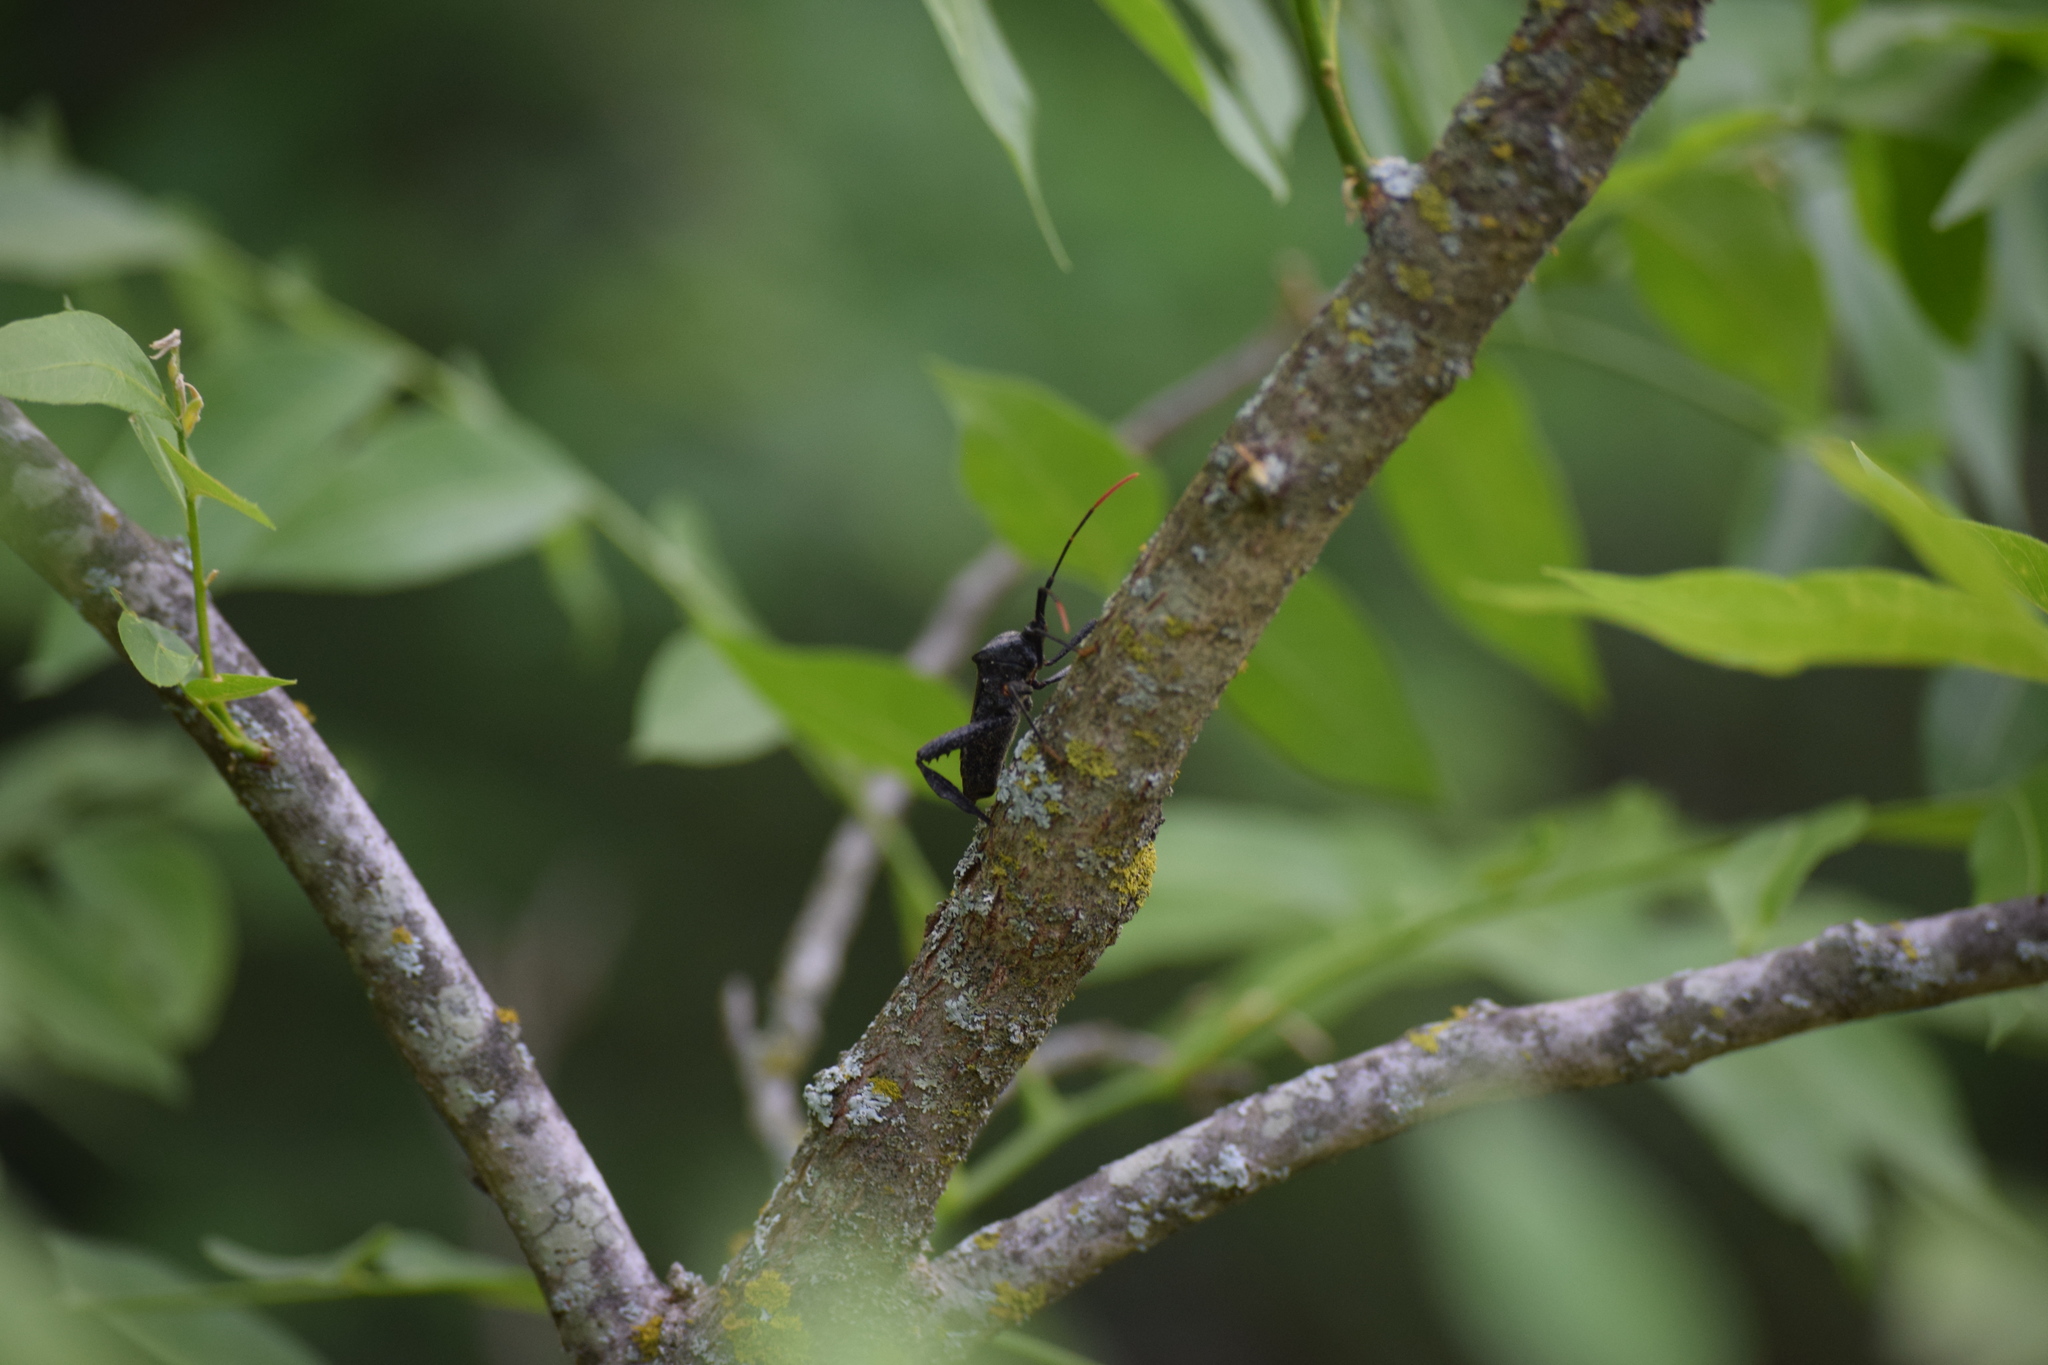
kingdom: Animalia
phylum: Arthropoda
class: Insecta
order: Hemiptera
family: Coreidae
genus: Acanthocephala
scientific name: Acanthocephala terminalis
